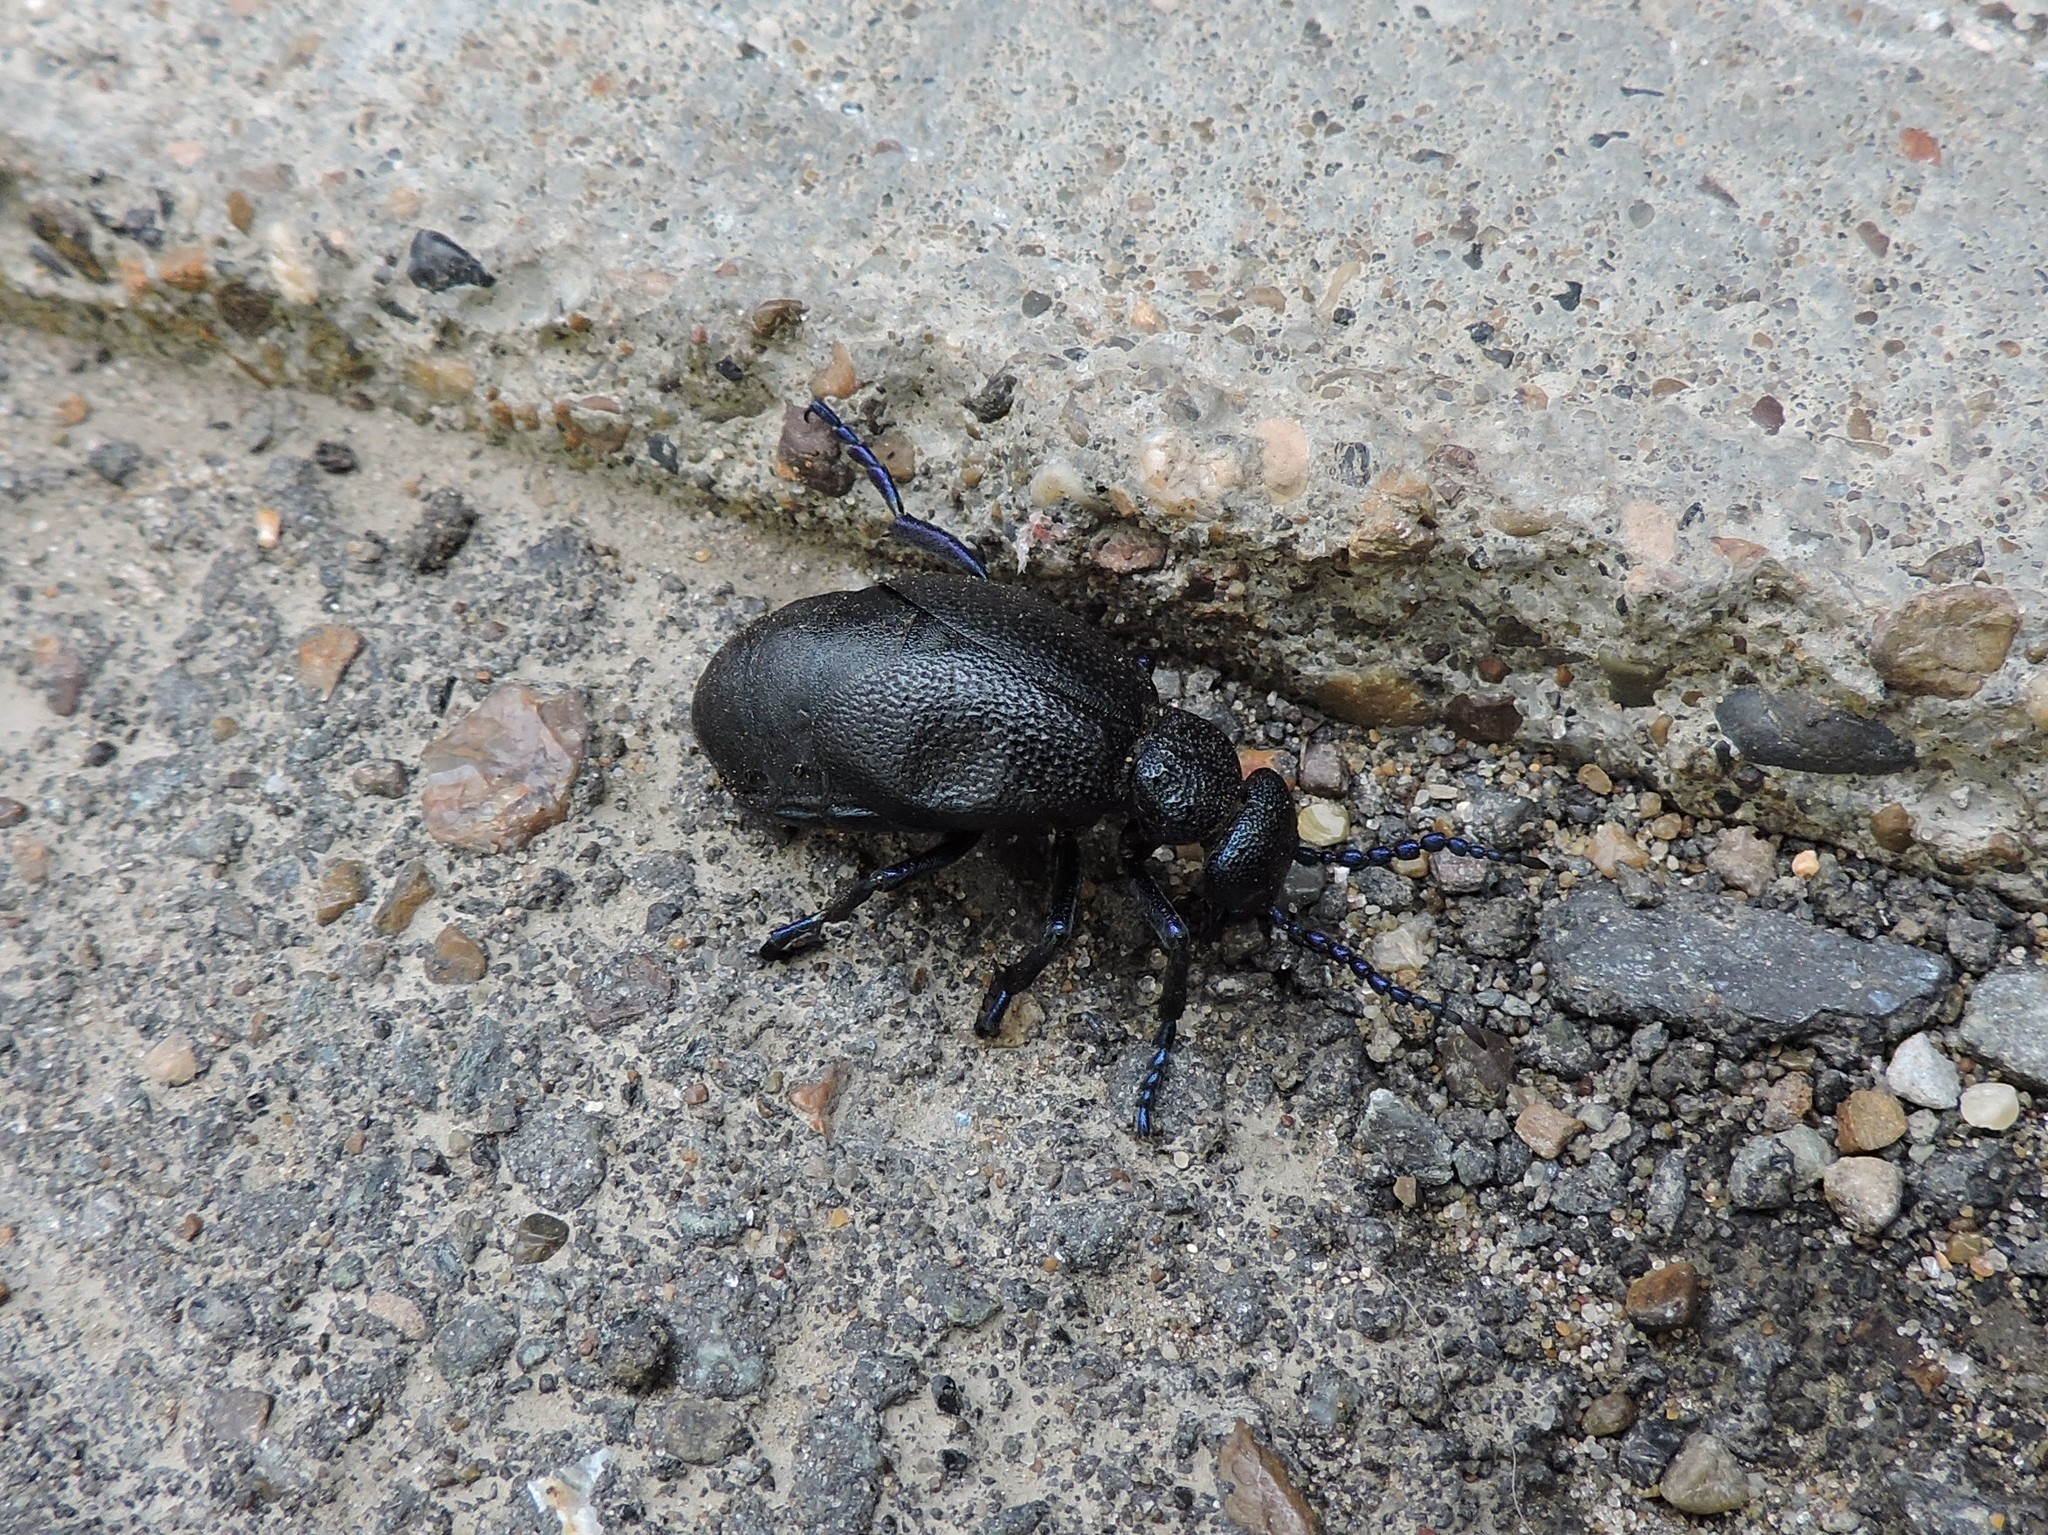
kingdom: Animalia
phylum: Arthropoda
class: Insecta
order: Coleoptera
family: Meloidae
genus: Meloe
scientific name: Meloe proscarabaeus
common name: Black oil-beetle
